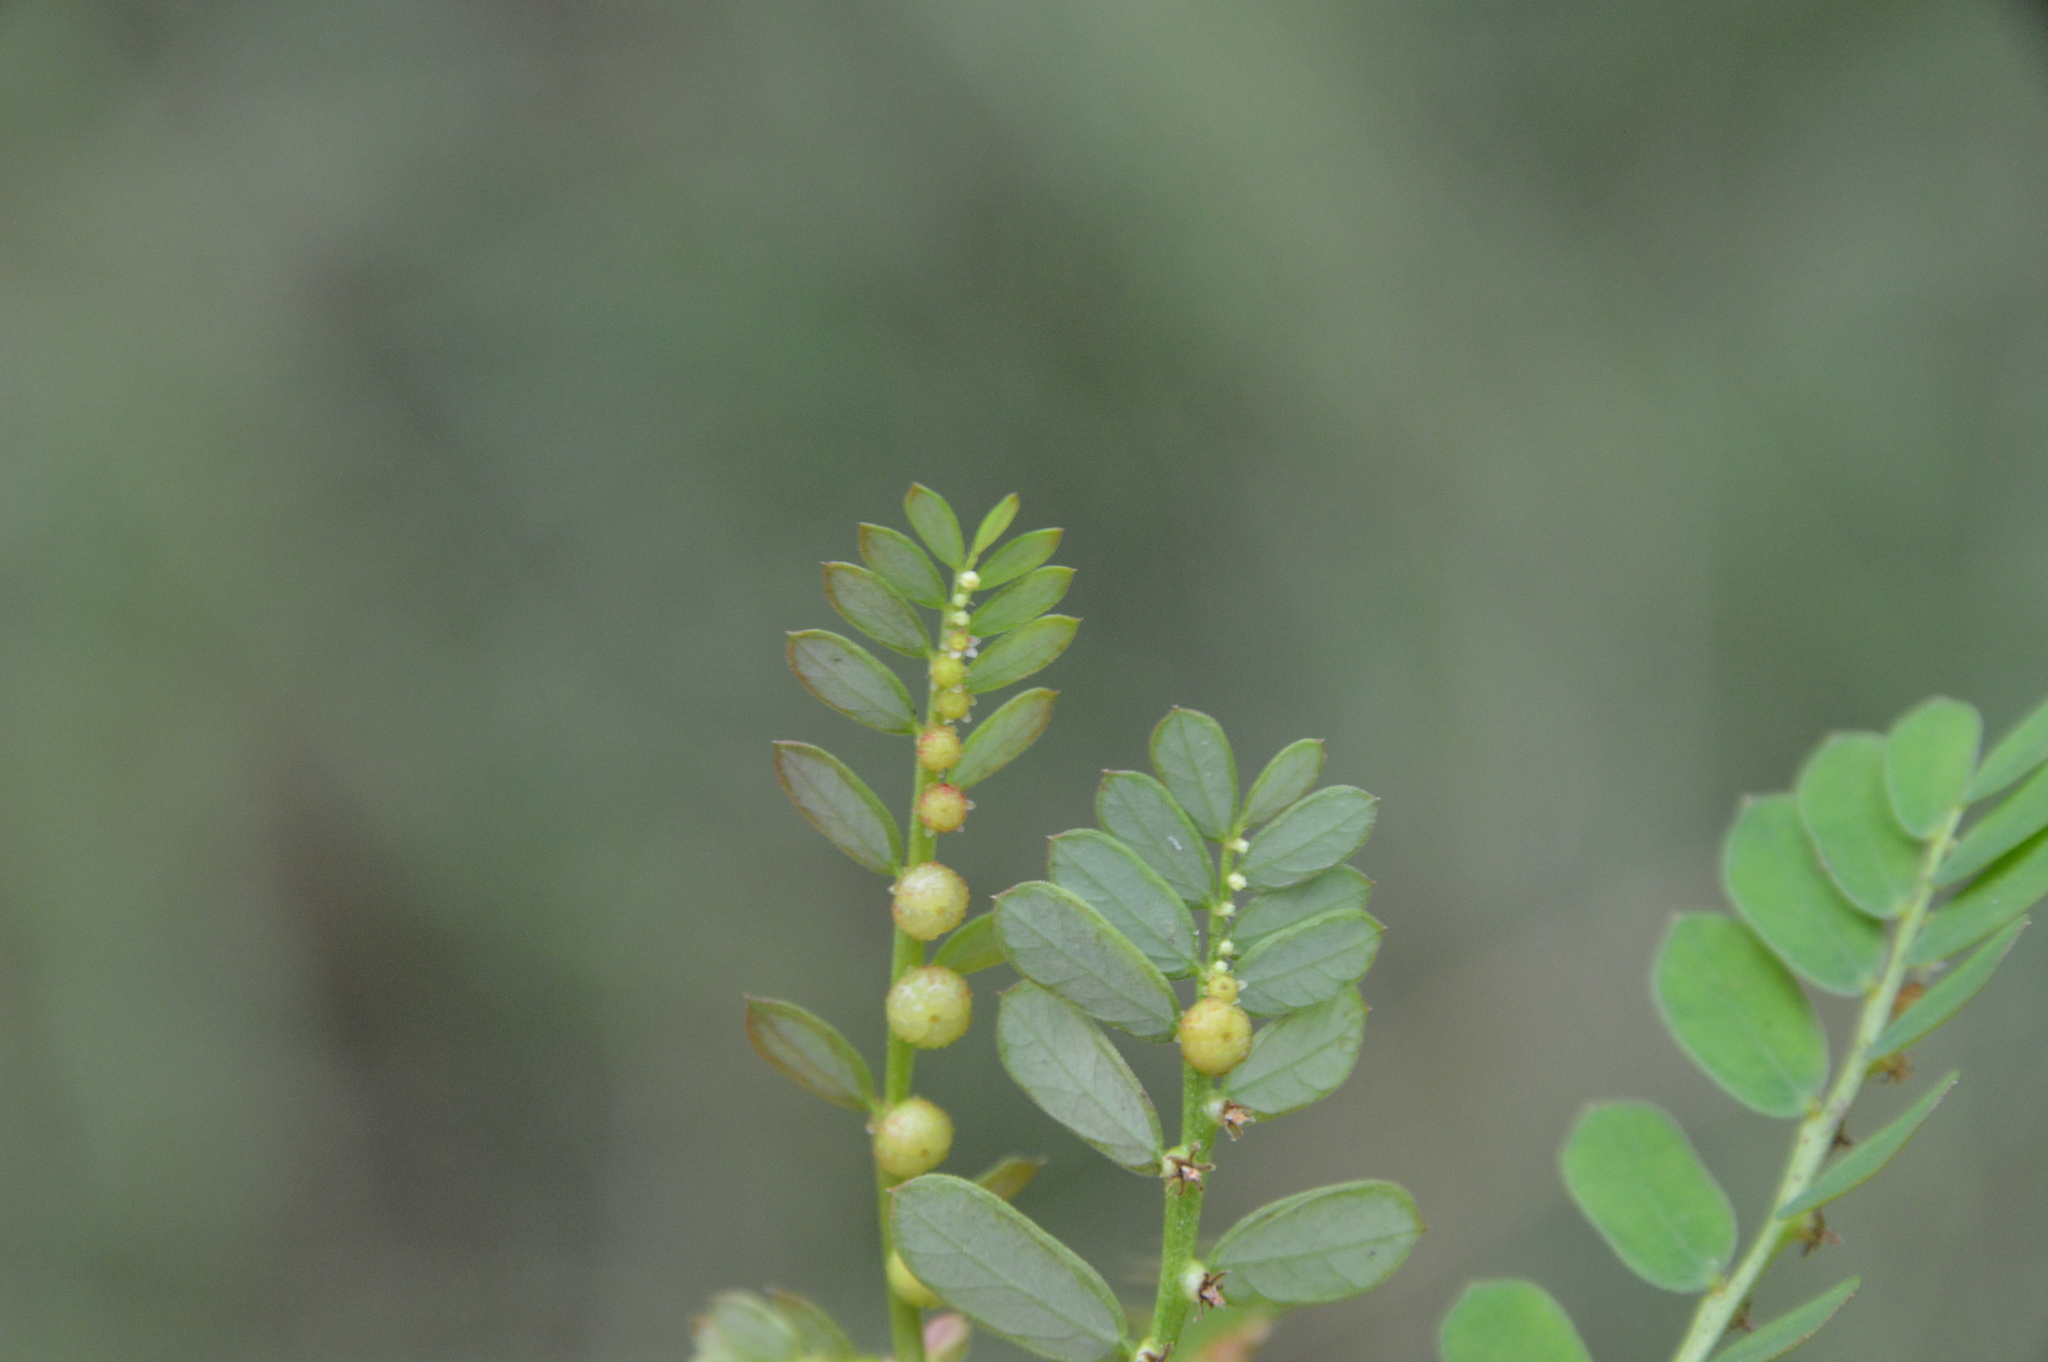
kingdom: Plantae
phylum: Tracheophyta
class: Magnoliopsida
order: Malpighiales
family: Phyllanthaceae
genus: Phyllanthus
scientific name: Phyllanthus urinaria
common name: Chamber bitter
